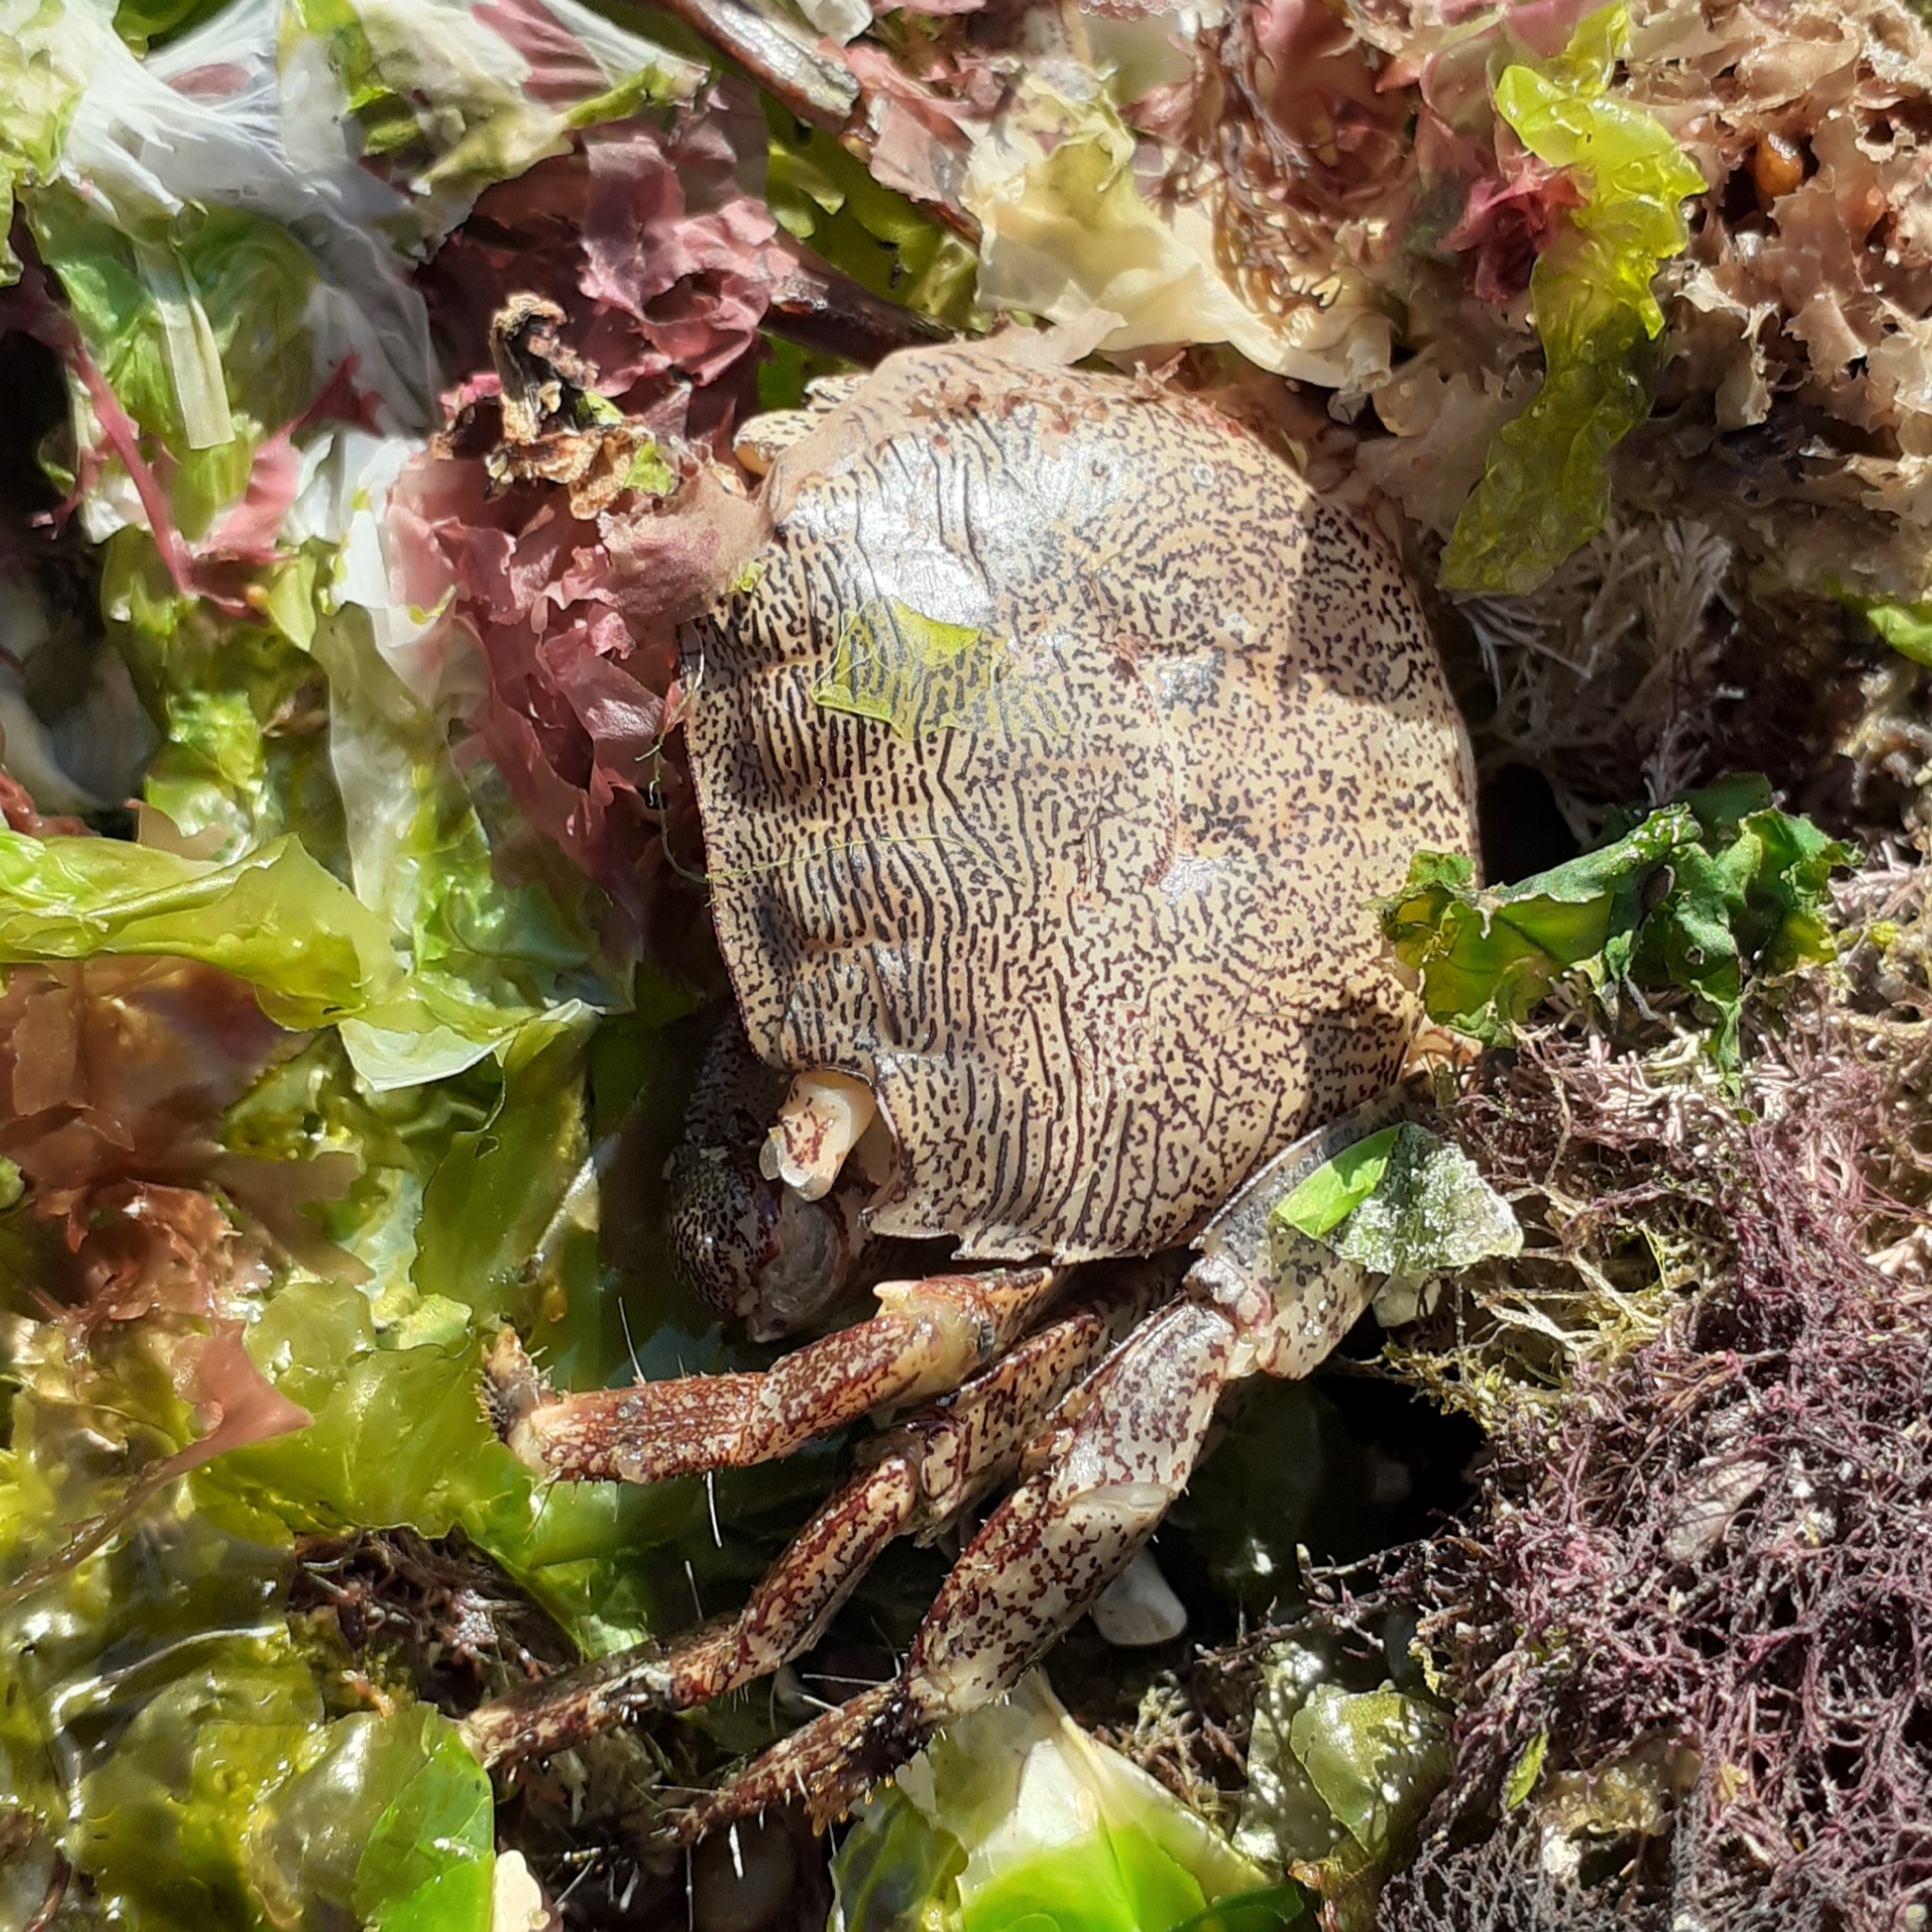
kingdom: Animalia
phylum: Arthropoda
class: Malacostraca
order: Decapoda
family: Grapsidae
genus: Pachygrapsus
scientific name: Pachygrapsus marmoratus
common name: Marbled rock crab
